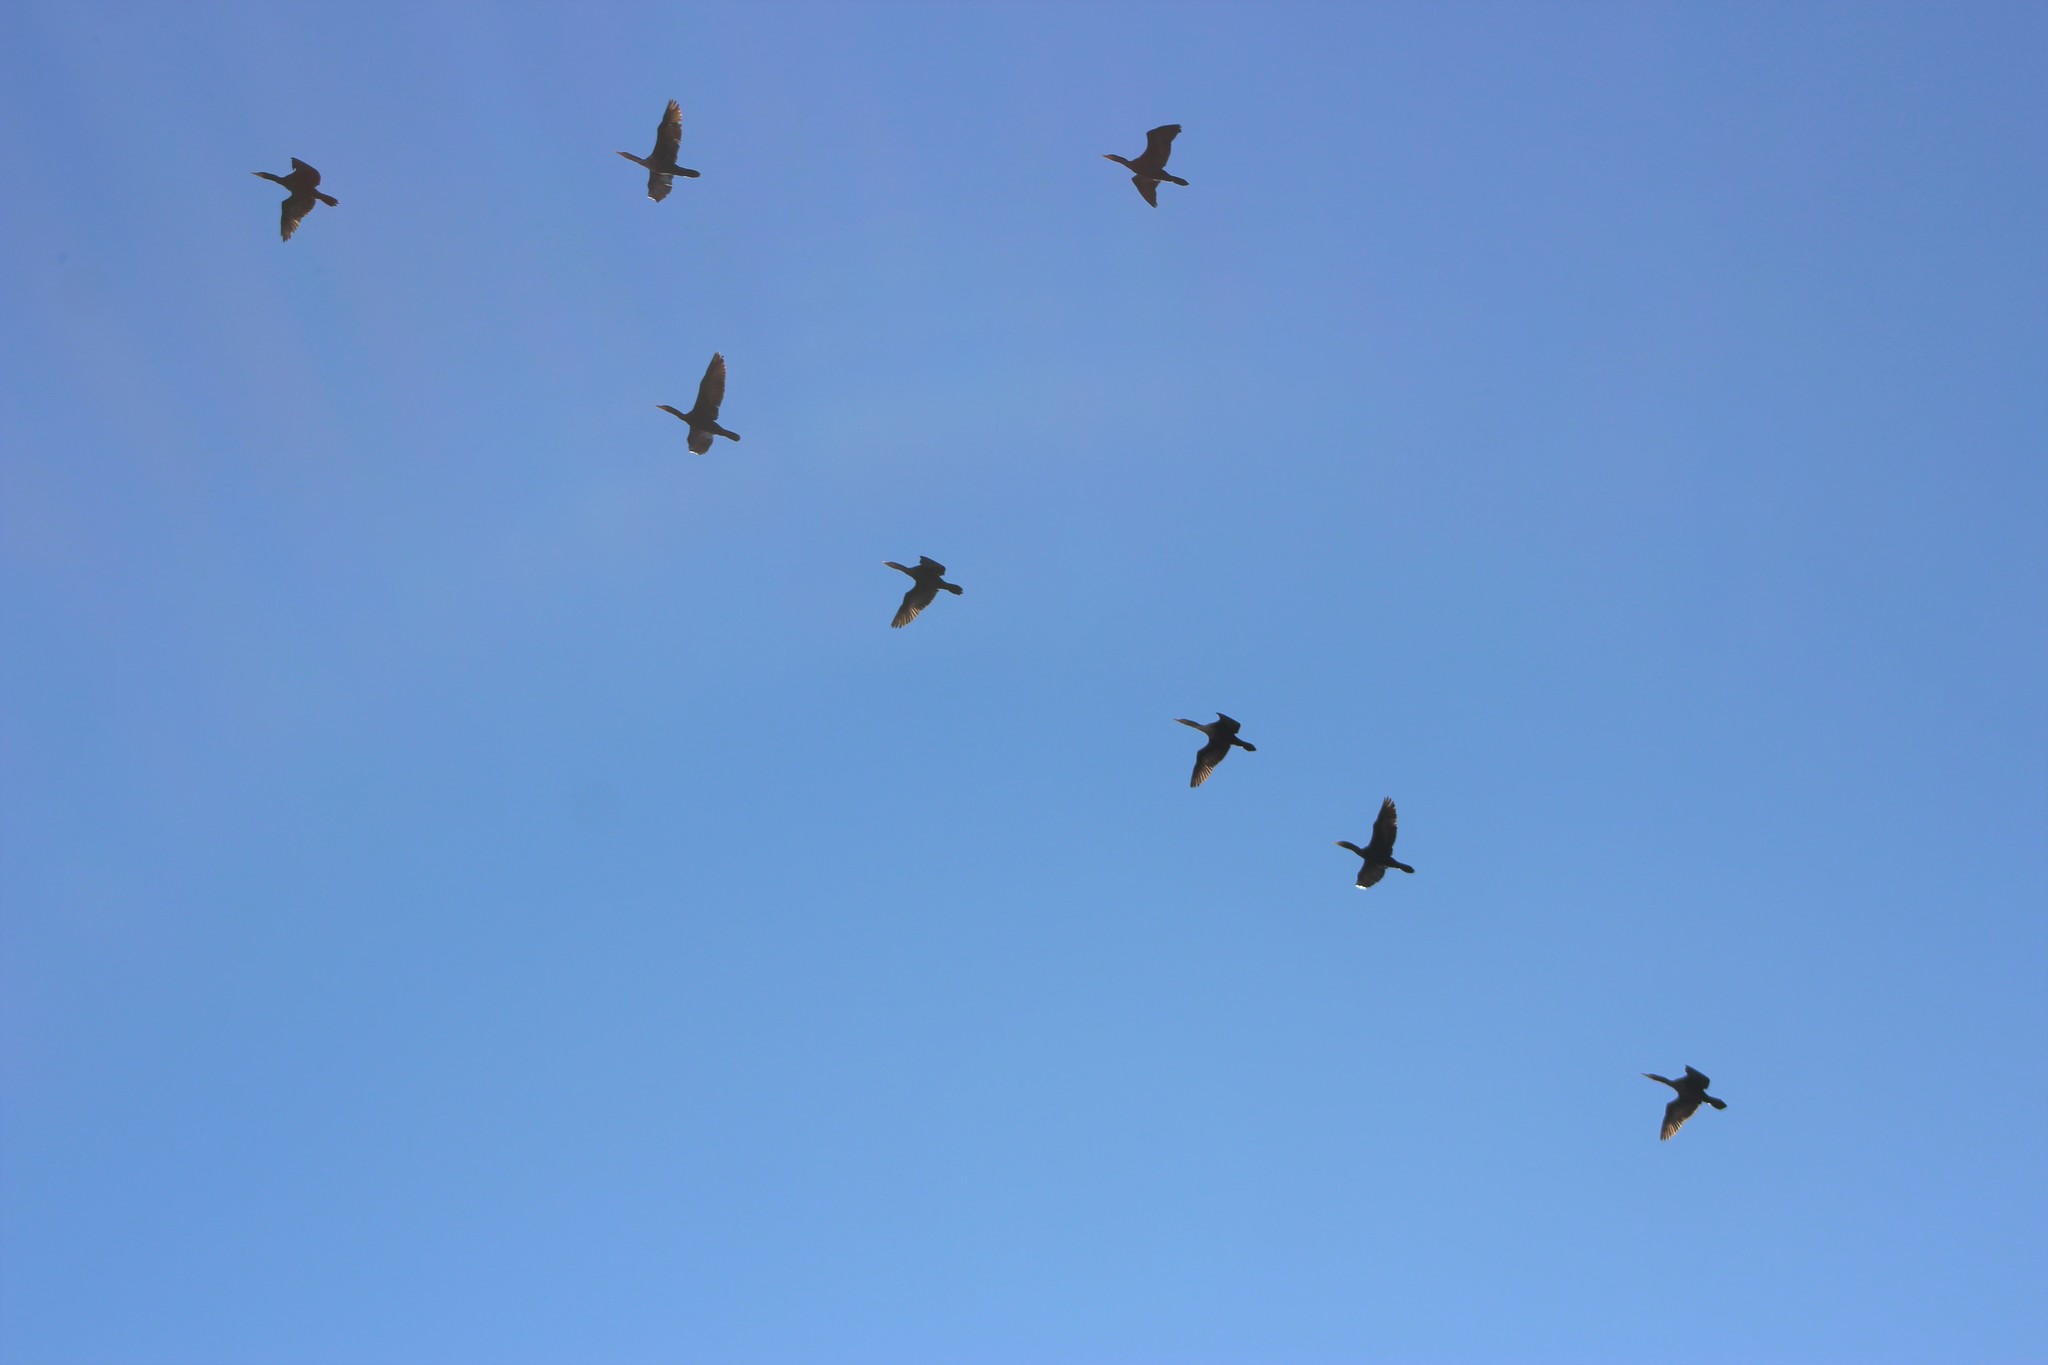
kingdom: Animalia
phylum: Chordata
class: Aves
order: Suliformes
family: Phalacrocoracidae
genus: Phalacrocorax
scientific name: Phalacrocorax brasilianus
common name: Neotropic cormorant
